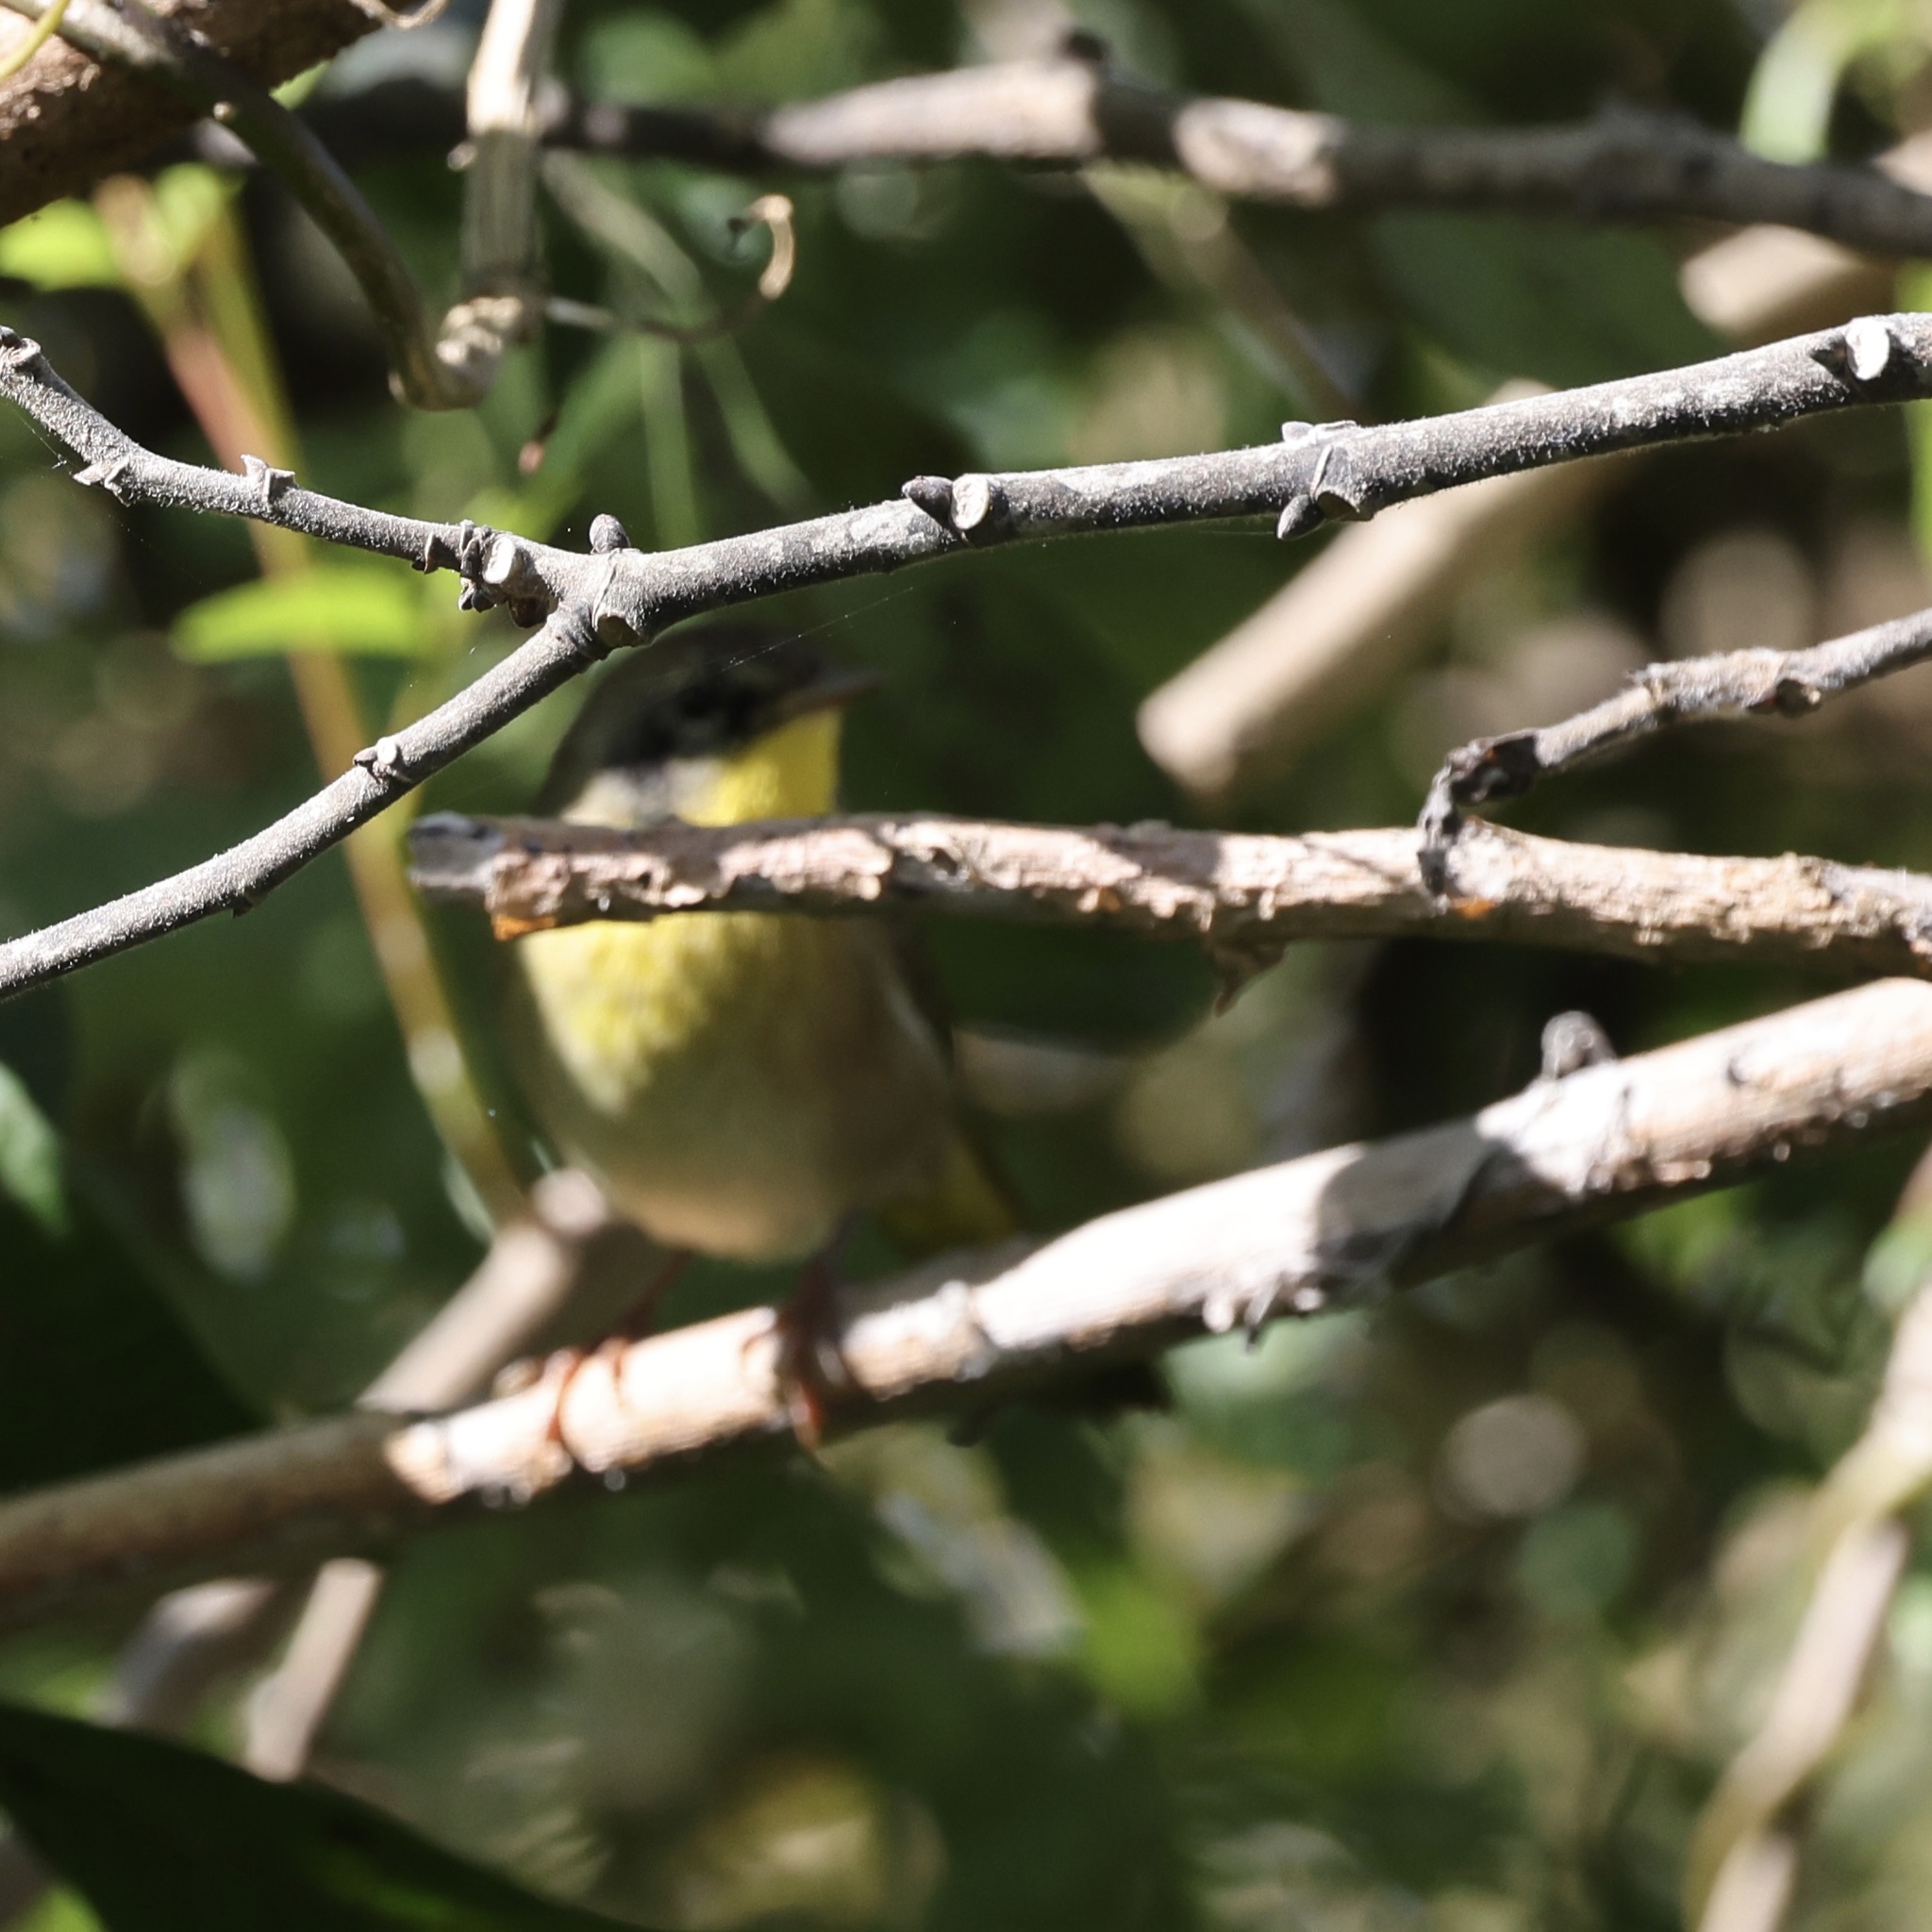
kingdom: Animalia
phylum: Chordata
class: Aves
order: Passeriformes
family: Parulidae
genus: Geothlypis
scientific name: Geothlypis trichas
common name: Common yellowthroat
